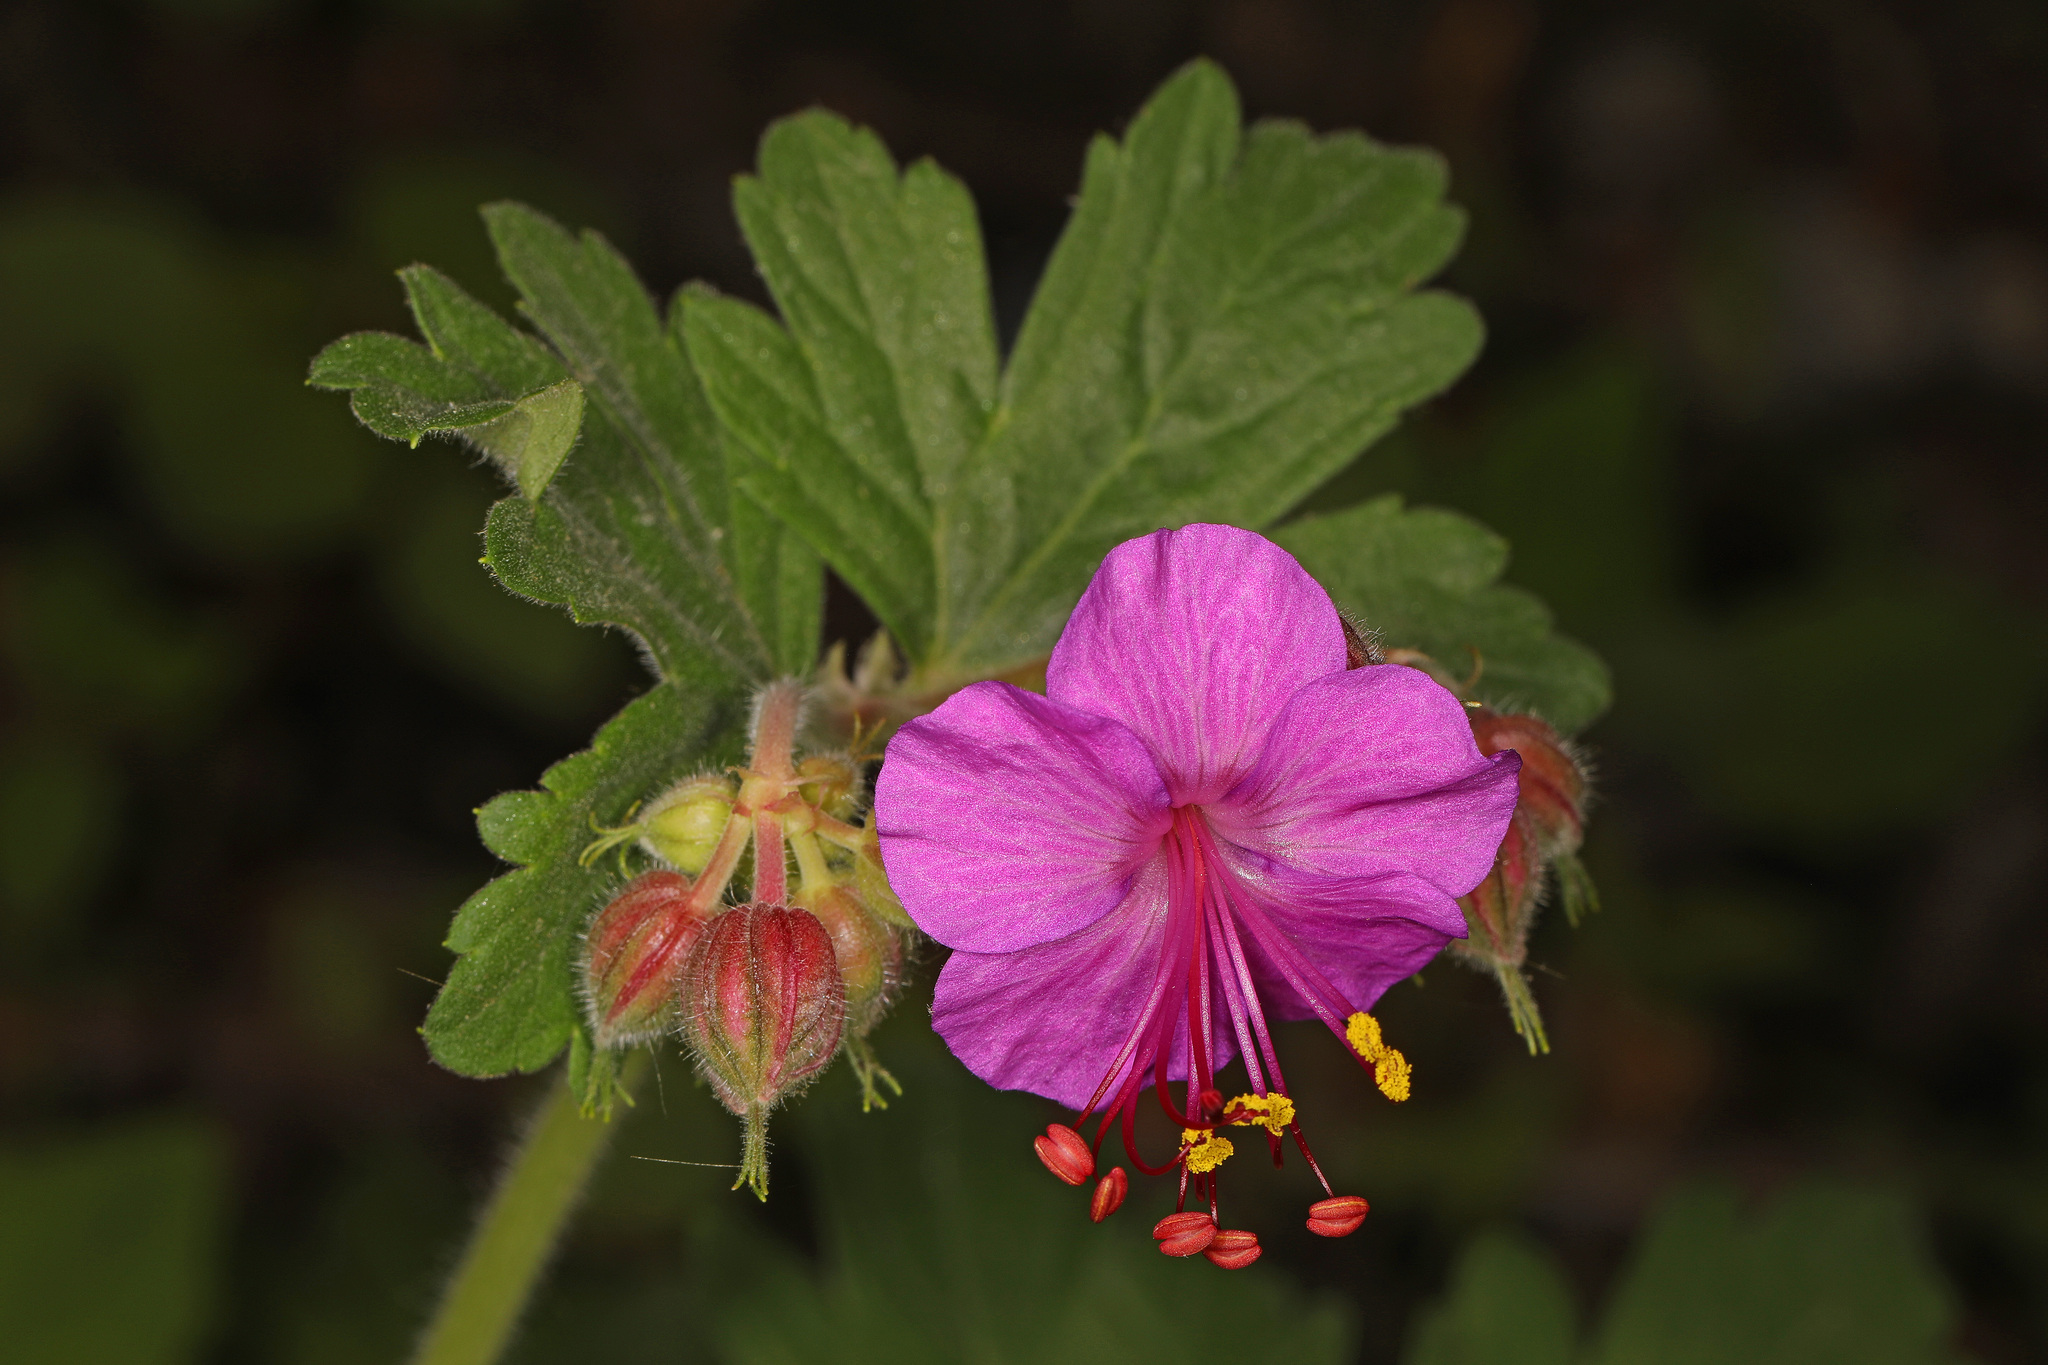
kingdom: Plantae
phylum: Tracheophyta
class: Magnoliopsida
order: Geraniales
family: Geraniaceae
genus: Geranium
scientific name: Geranium macrorrhizum
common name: Rock crane's-bill
